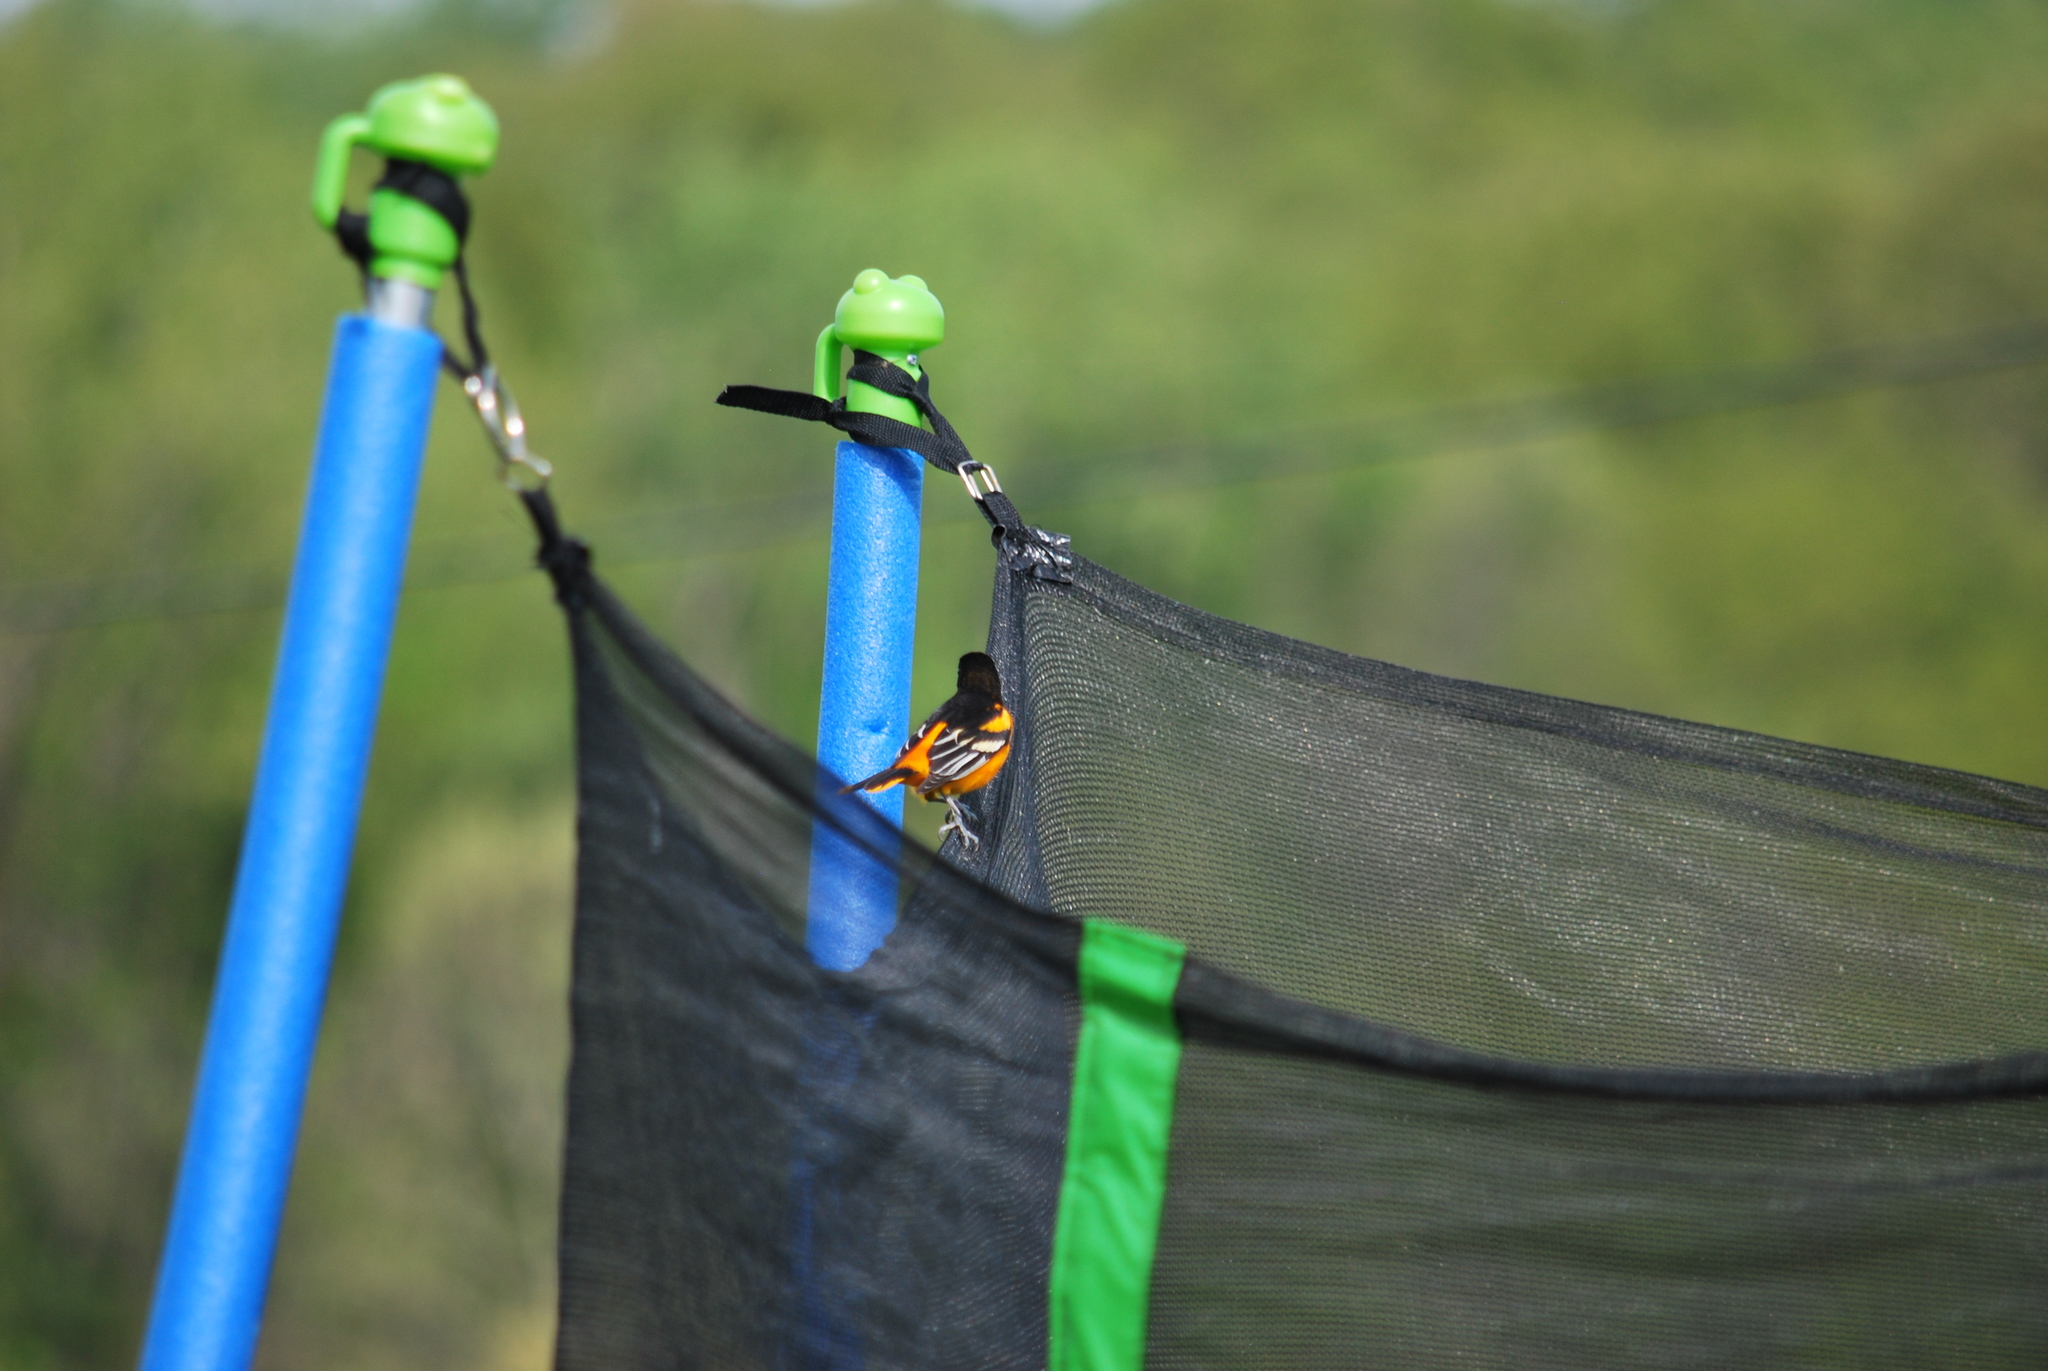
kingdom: Animalia
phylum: Chordata
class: Aves
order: Passeriformes
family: Icteridae
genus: Icterus
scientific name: Icterus galbula
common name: Baltimore oriole
